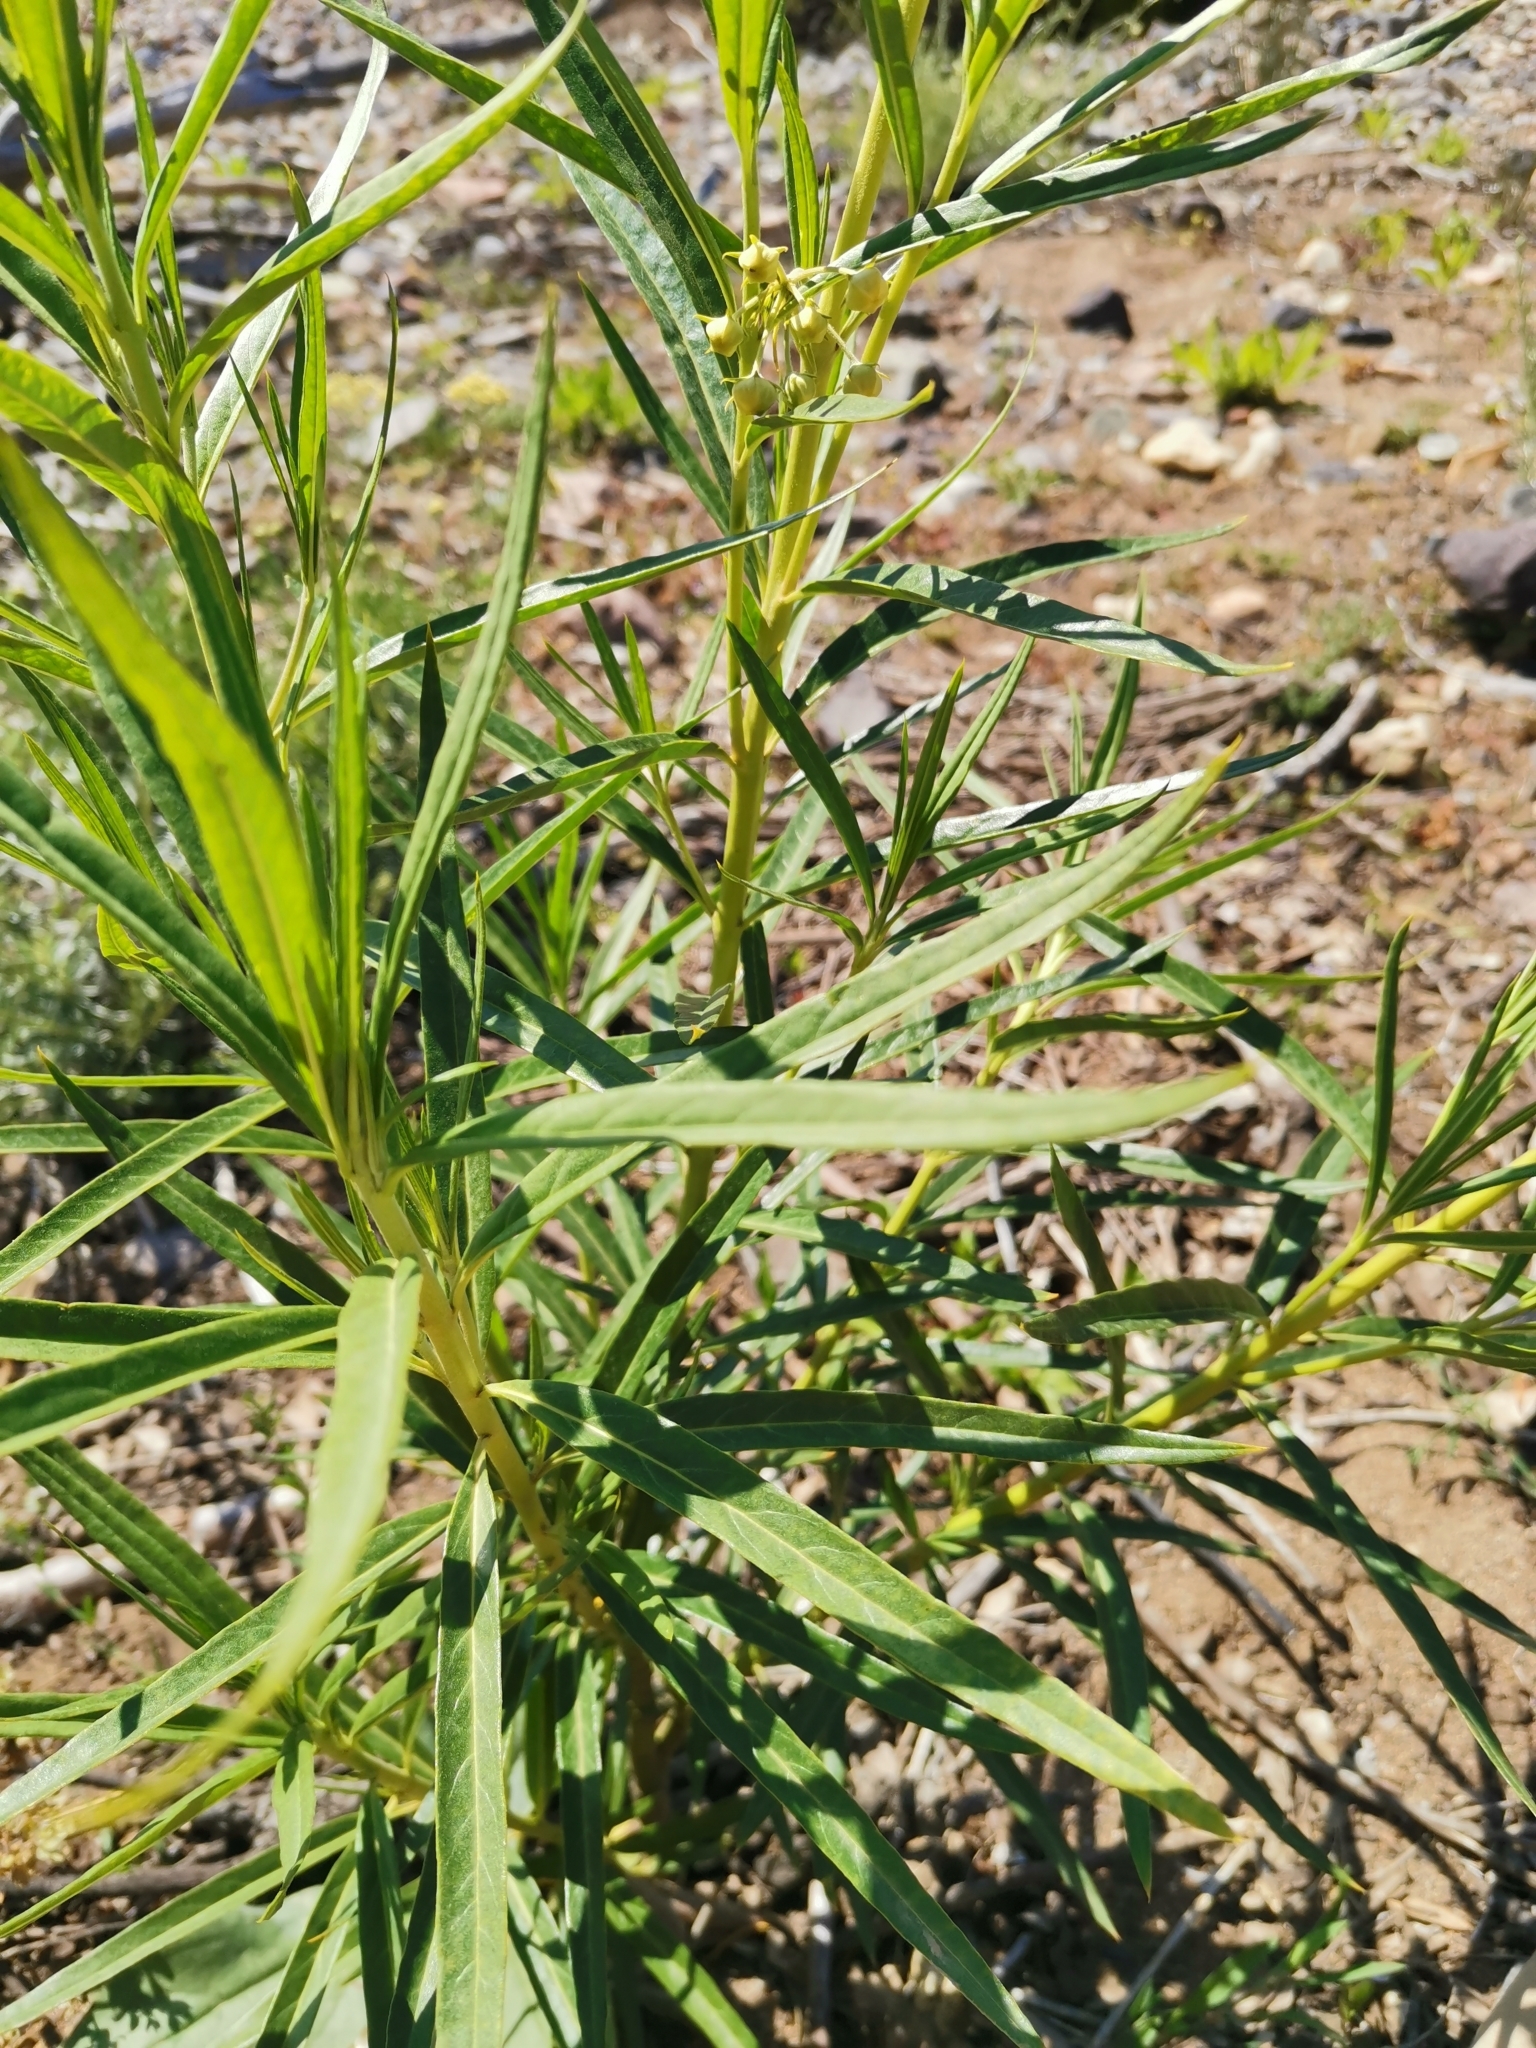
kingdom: Plantae
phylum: Tracheophyta
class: Magnoliopsida
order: Gentianales
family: Apocynaceae
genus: Gomphocarpus
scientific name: Gomphocarpus fruticosus
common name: Milkweed
